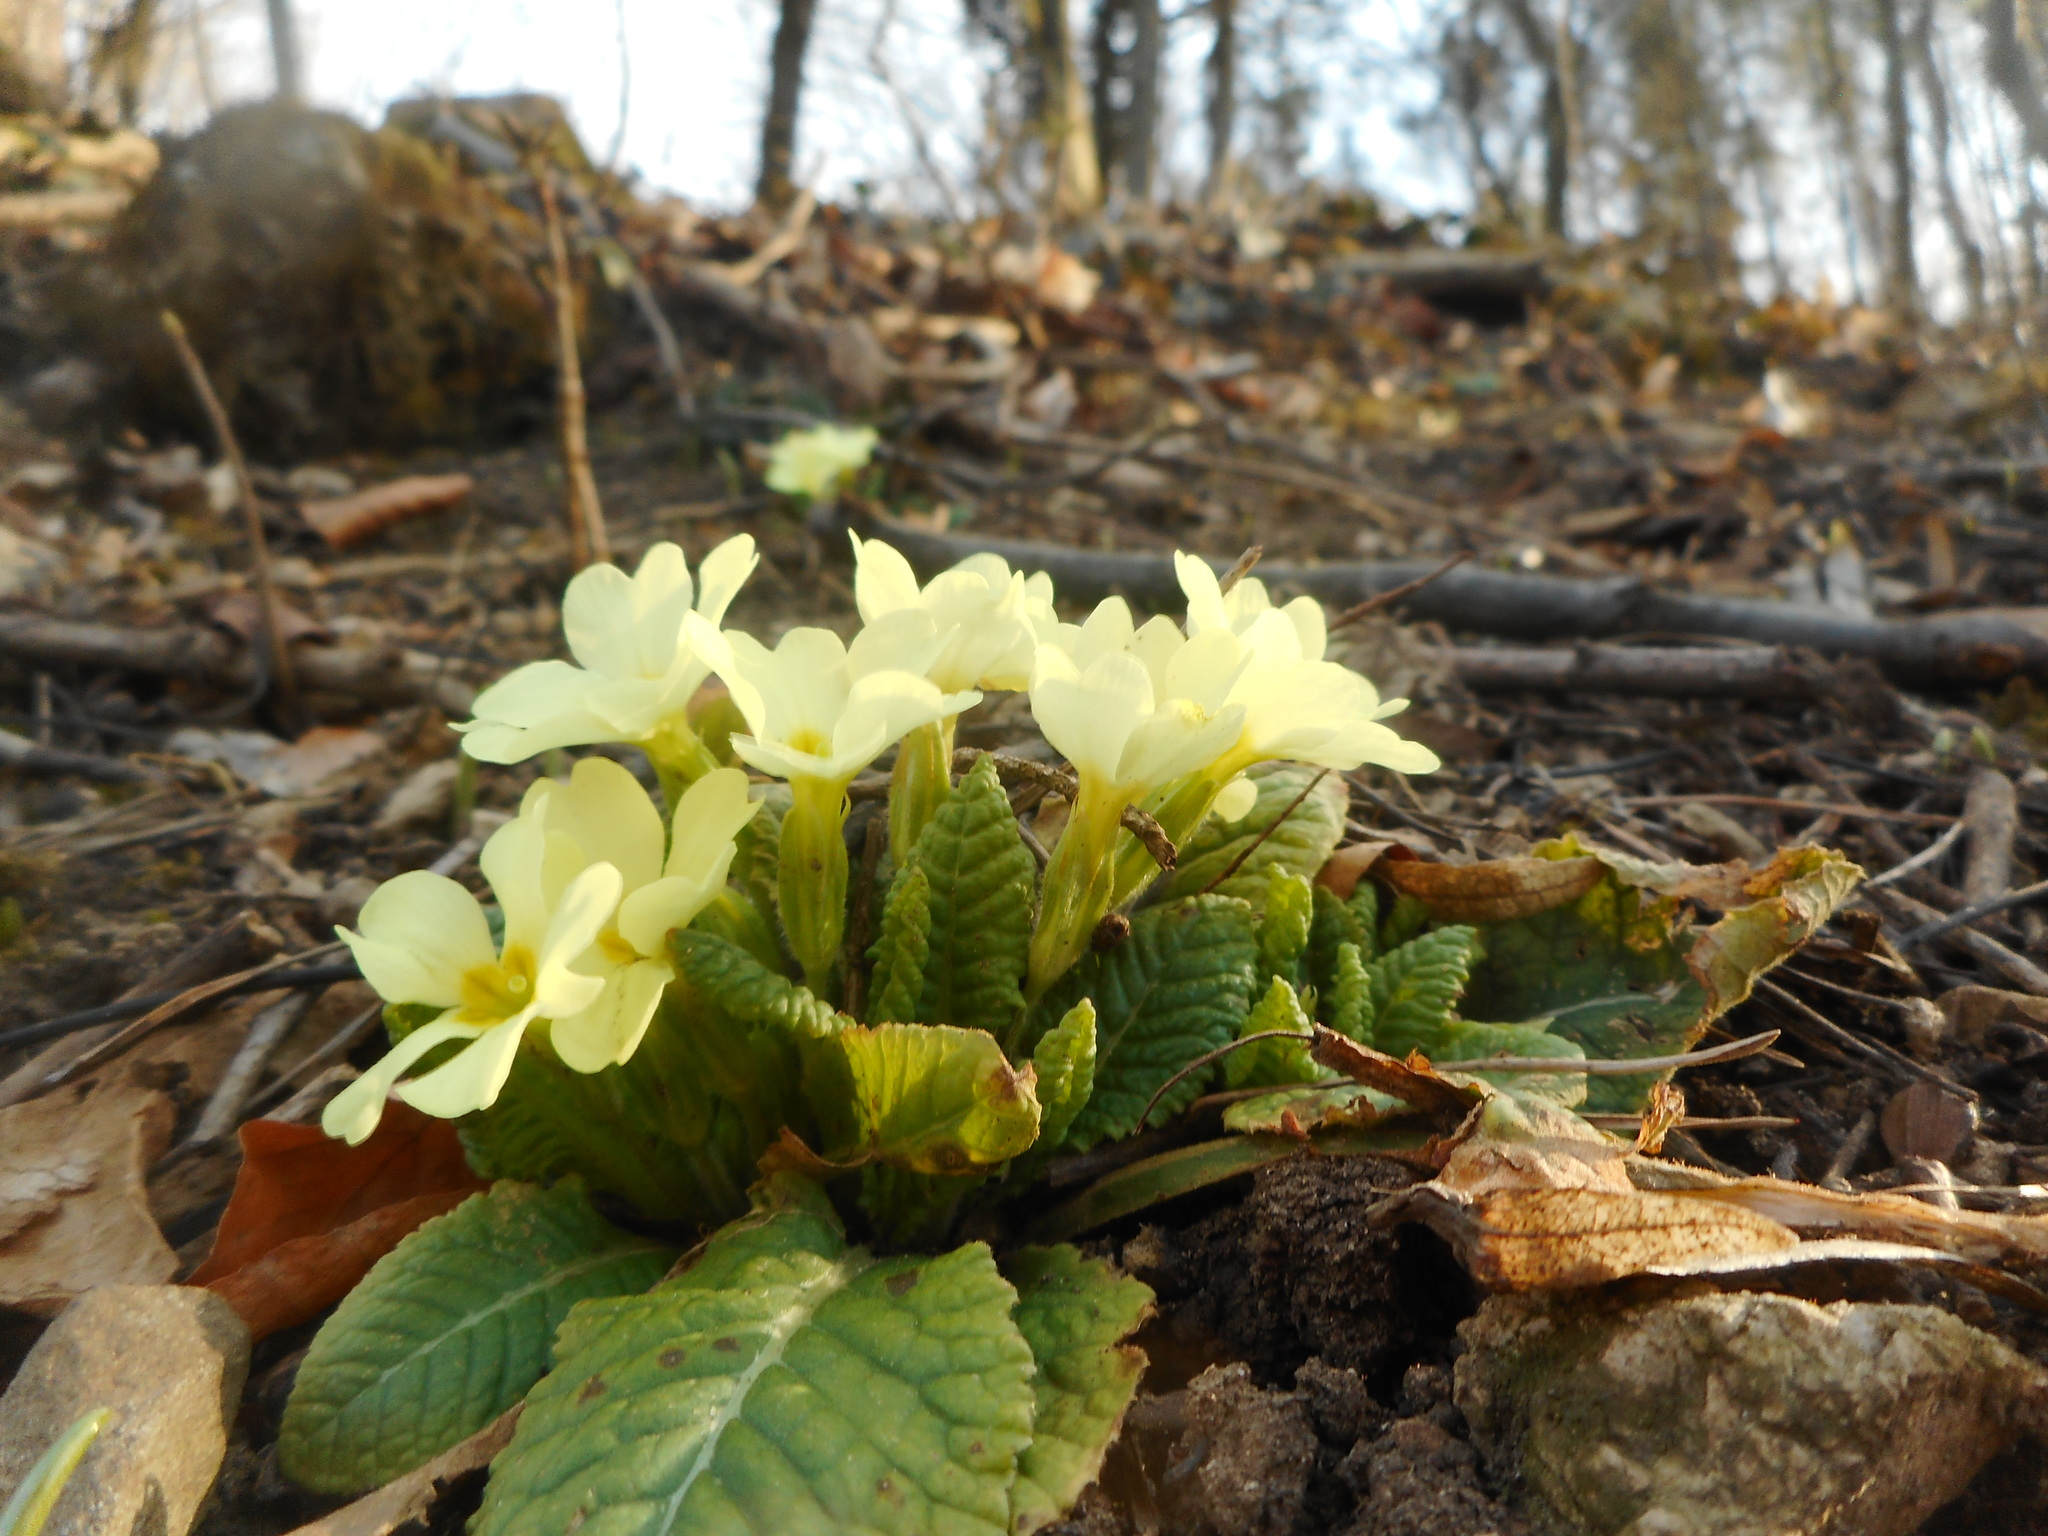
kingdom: Plantae
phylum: Tracheophyta
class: Magnoliopsida
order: Ericales
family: Primulaceae
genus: Primula
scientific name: Primula vulgaris
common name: Primrose
